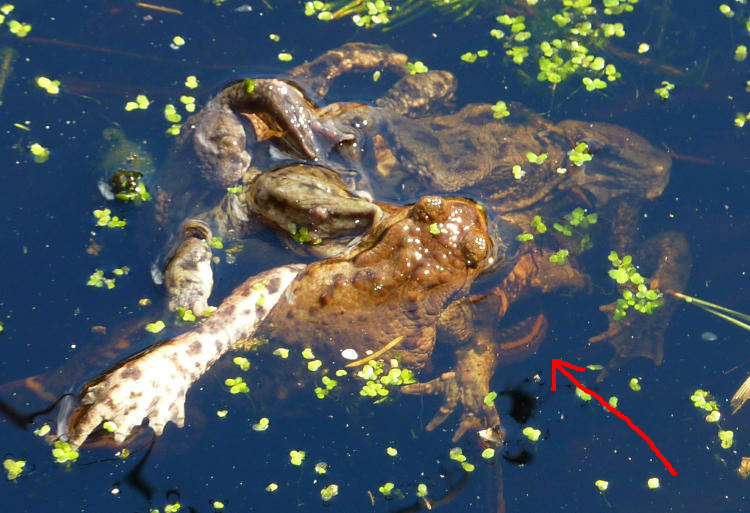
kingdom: Animalia
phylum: Chordata
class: Amphibia
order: Anura
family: Bufonidae
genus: Bufo
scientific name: Bufo bufo
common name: Common toad
